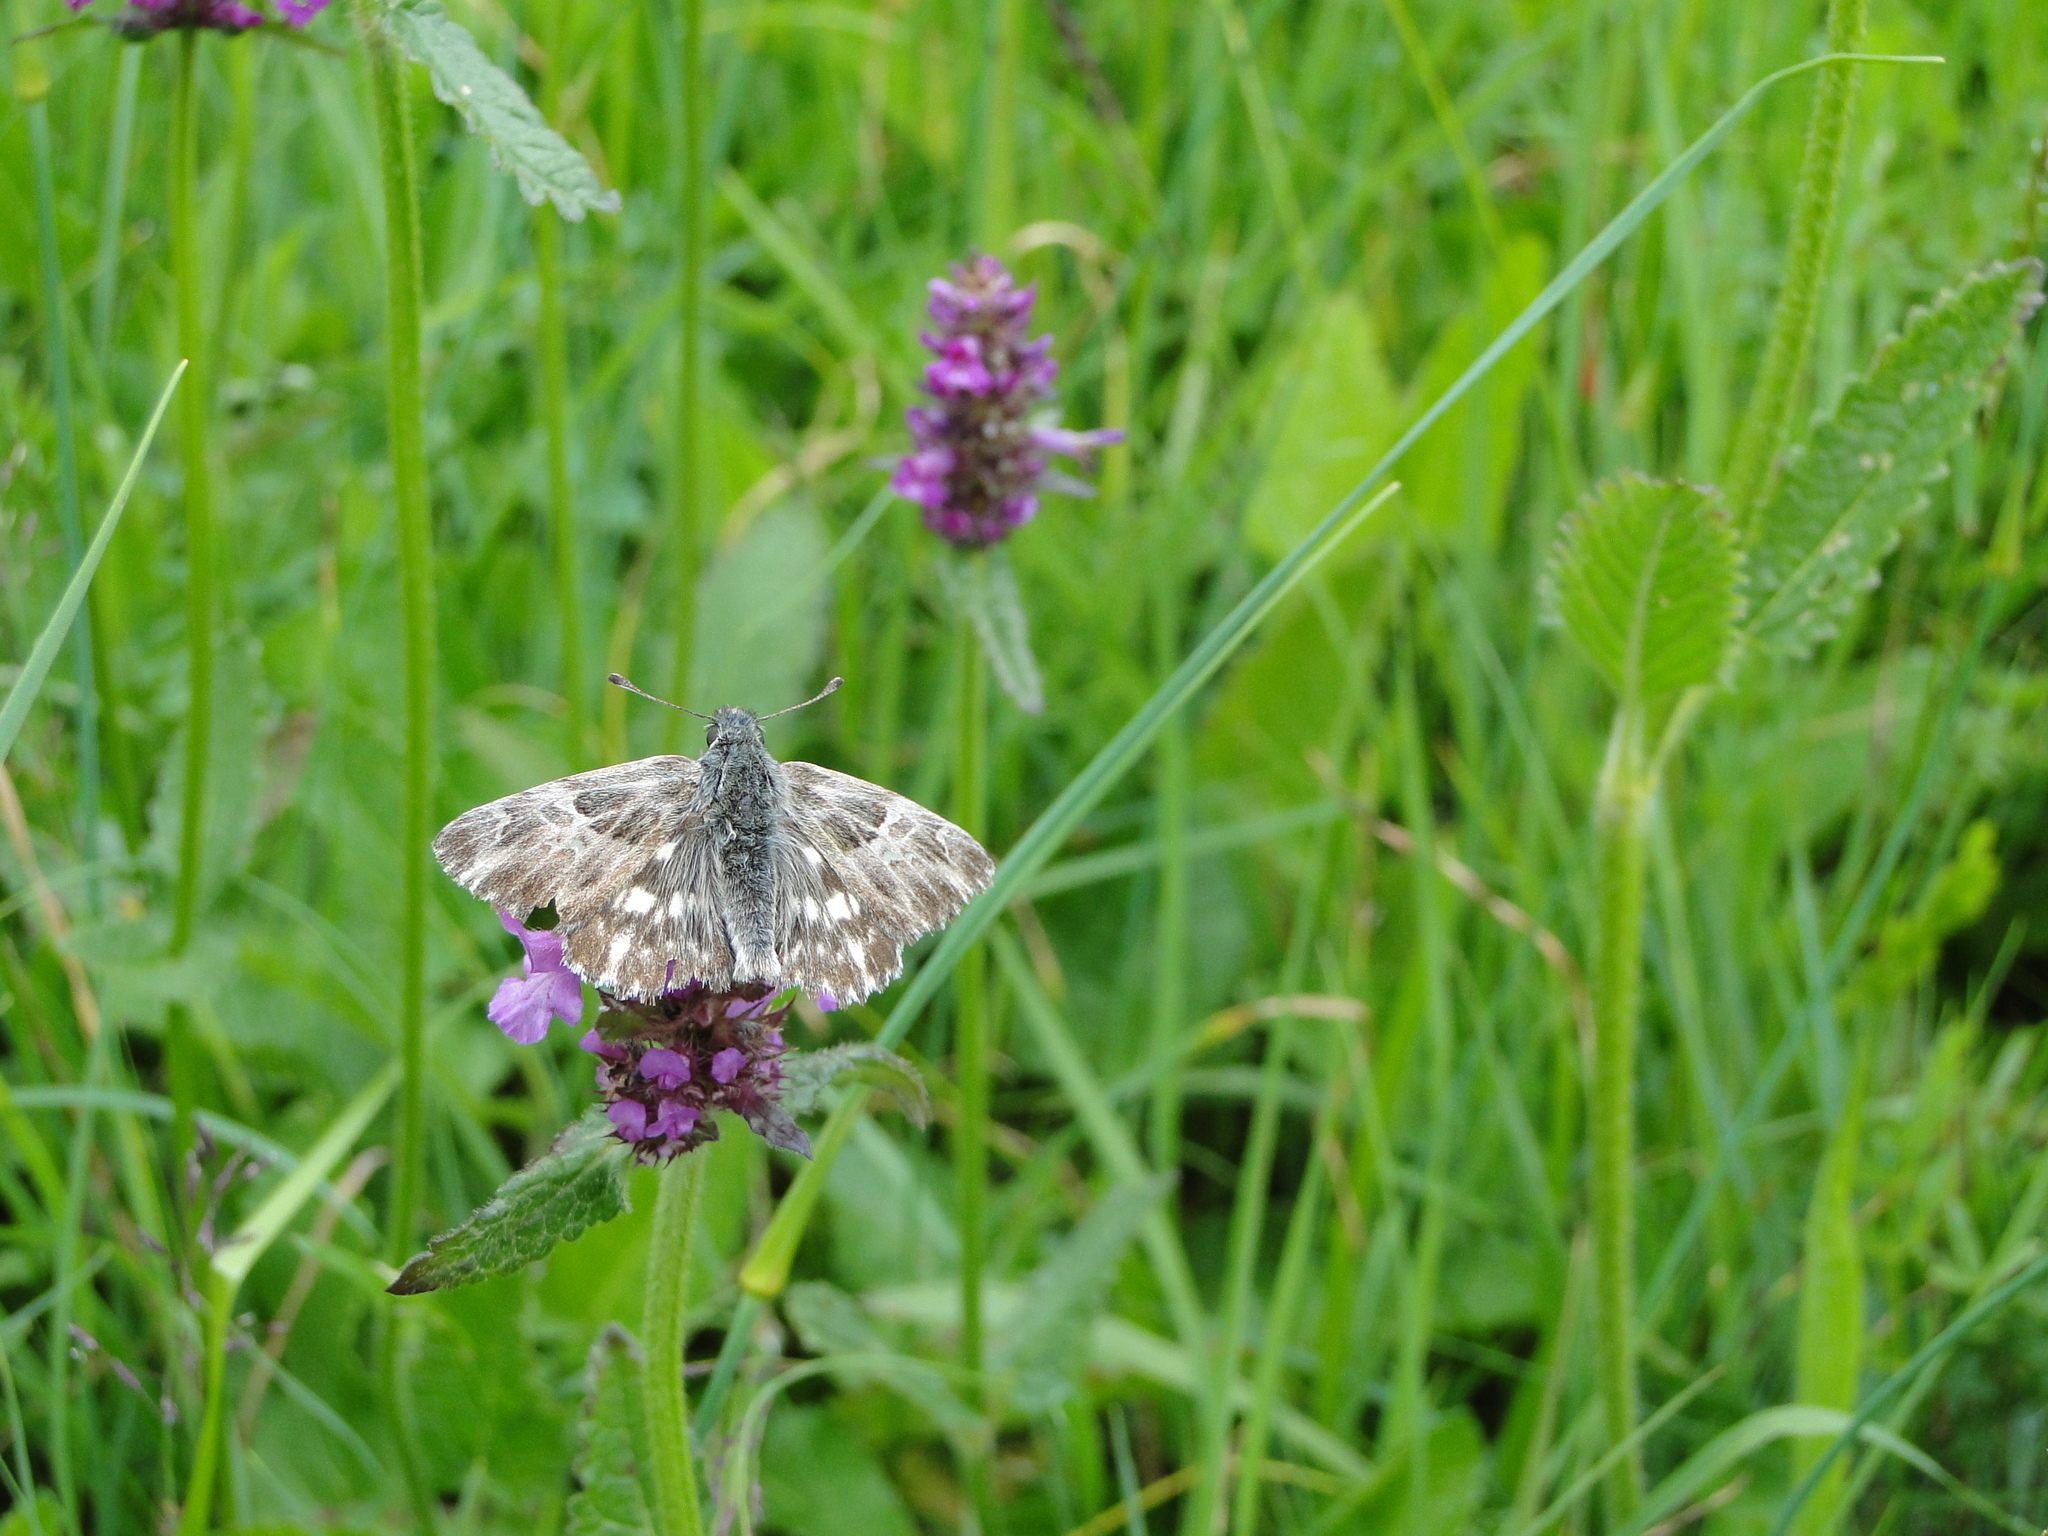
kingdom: Animalia
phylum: Arthropoda
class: Insecta
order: Lepidoptera
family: Hesperiidae
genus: Carcharodus
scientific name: Carcharodus floccifera
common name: Tufted marbled skipper
